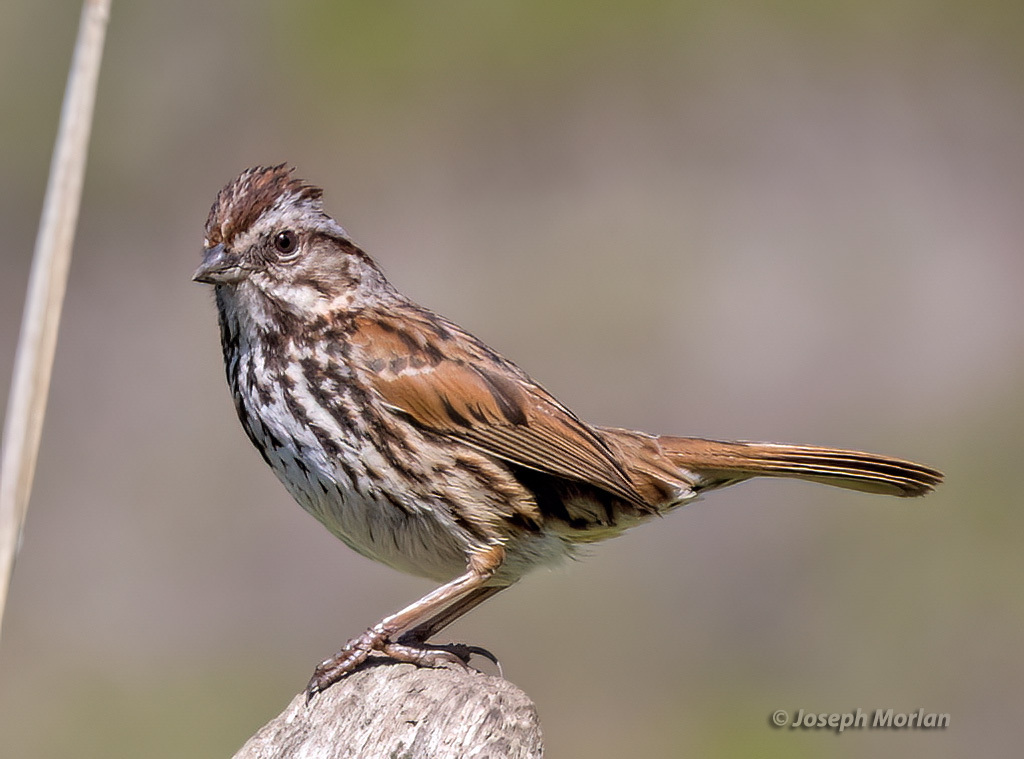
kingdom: Animalia
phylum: Chordata
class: Aves
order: Passeriformes
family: Passerellidae
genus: Melospiza
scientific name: Melospiza melodia
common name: Song sparrow
